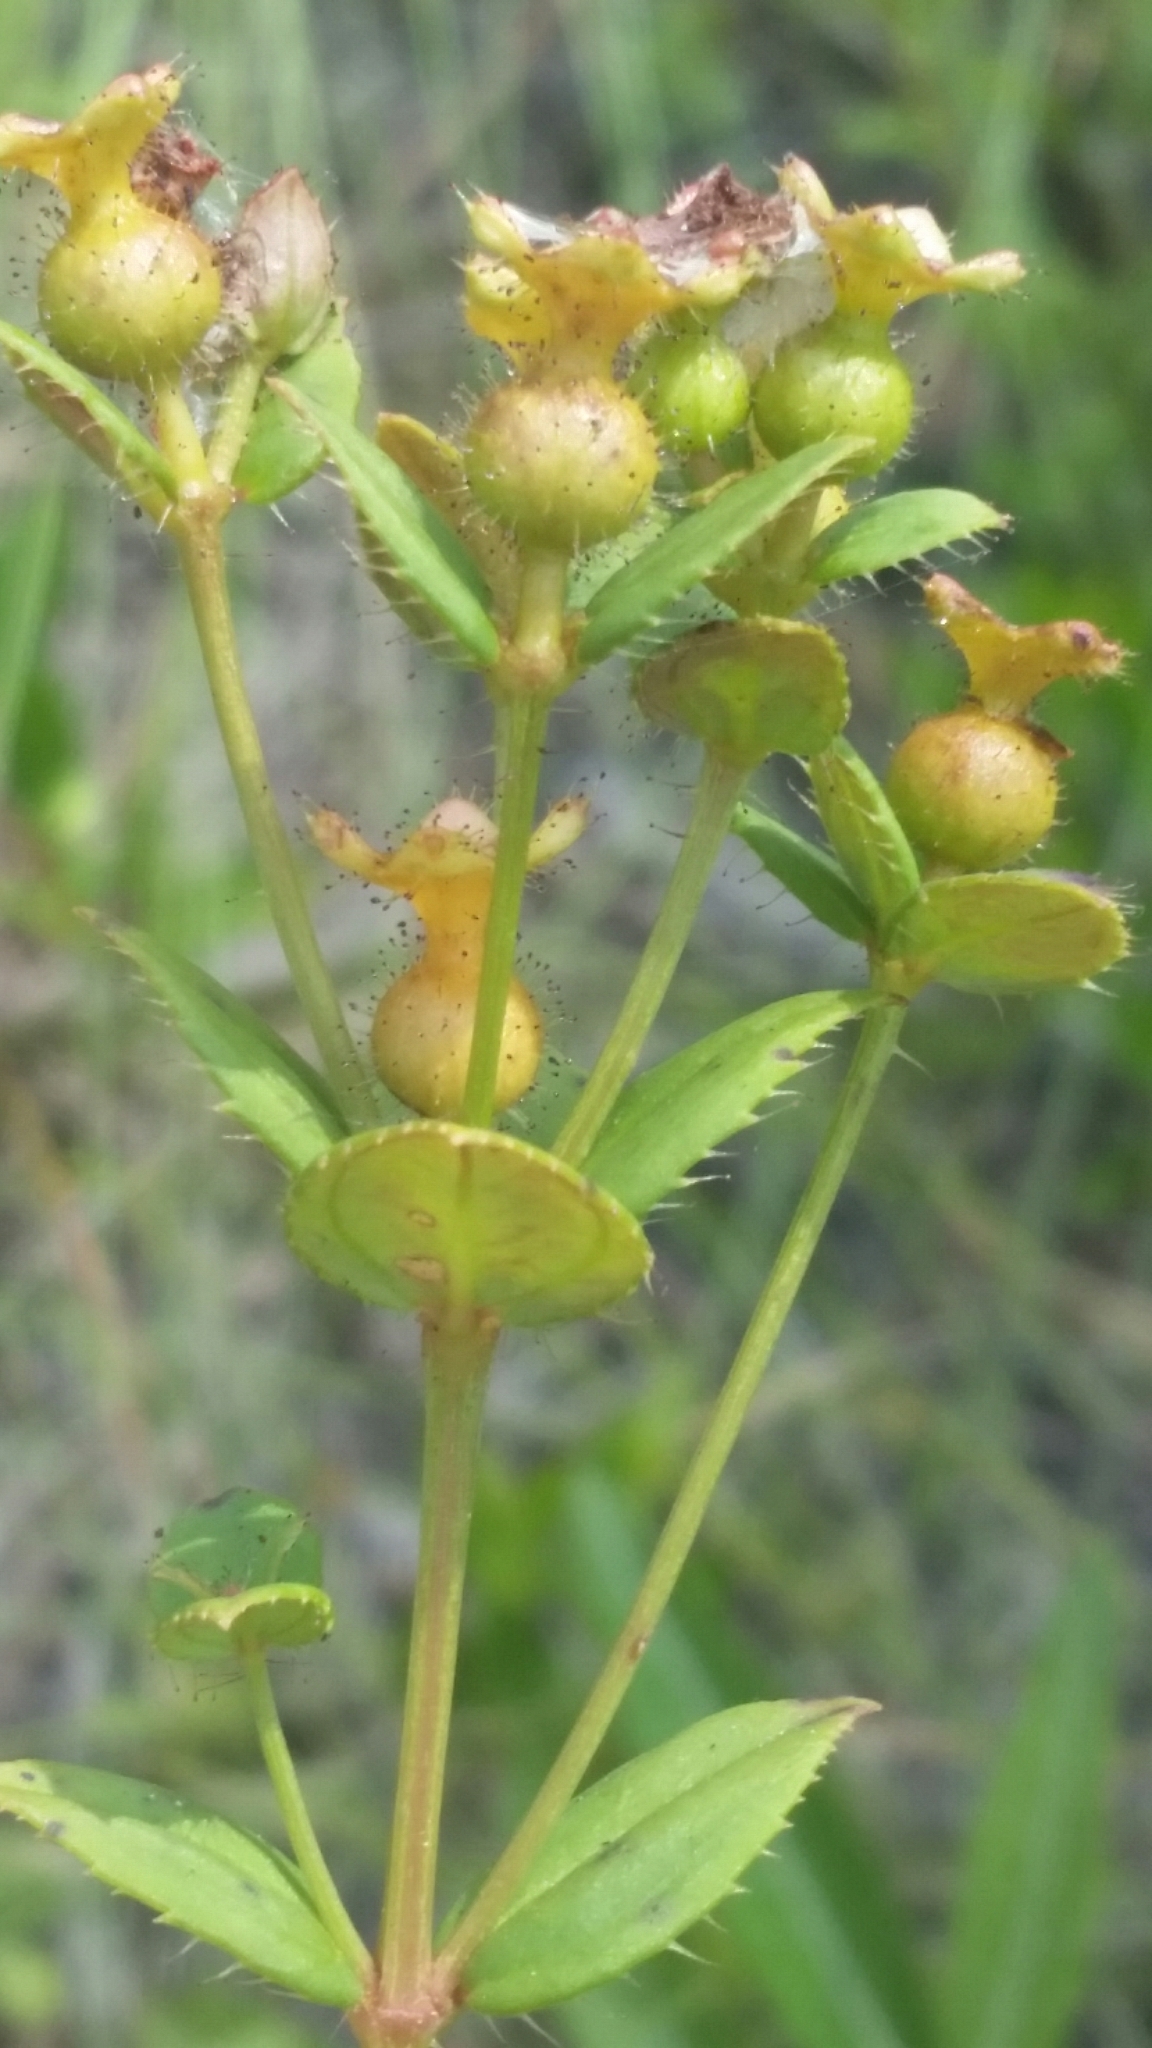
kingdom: Plantae
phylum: Tracheophyta
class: Magnoliopsida
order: Myrtales
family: Melastomataceae
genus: Rhexia
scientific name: Rhexia nuttallii
